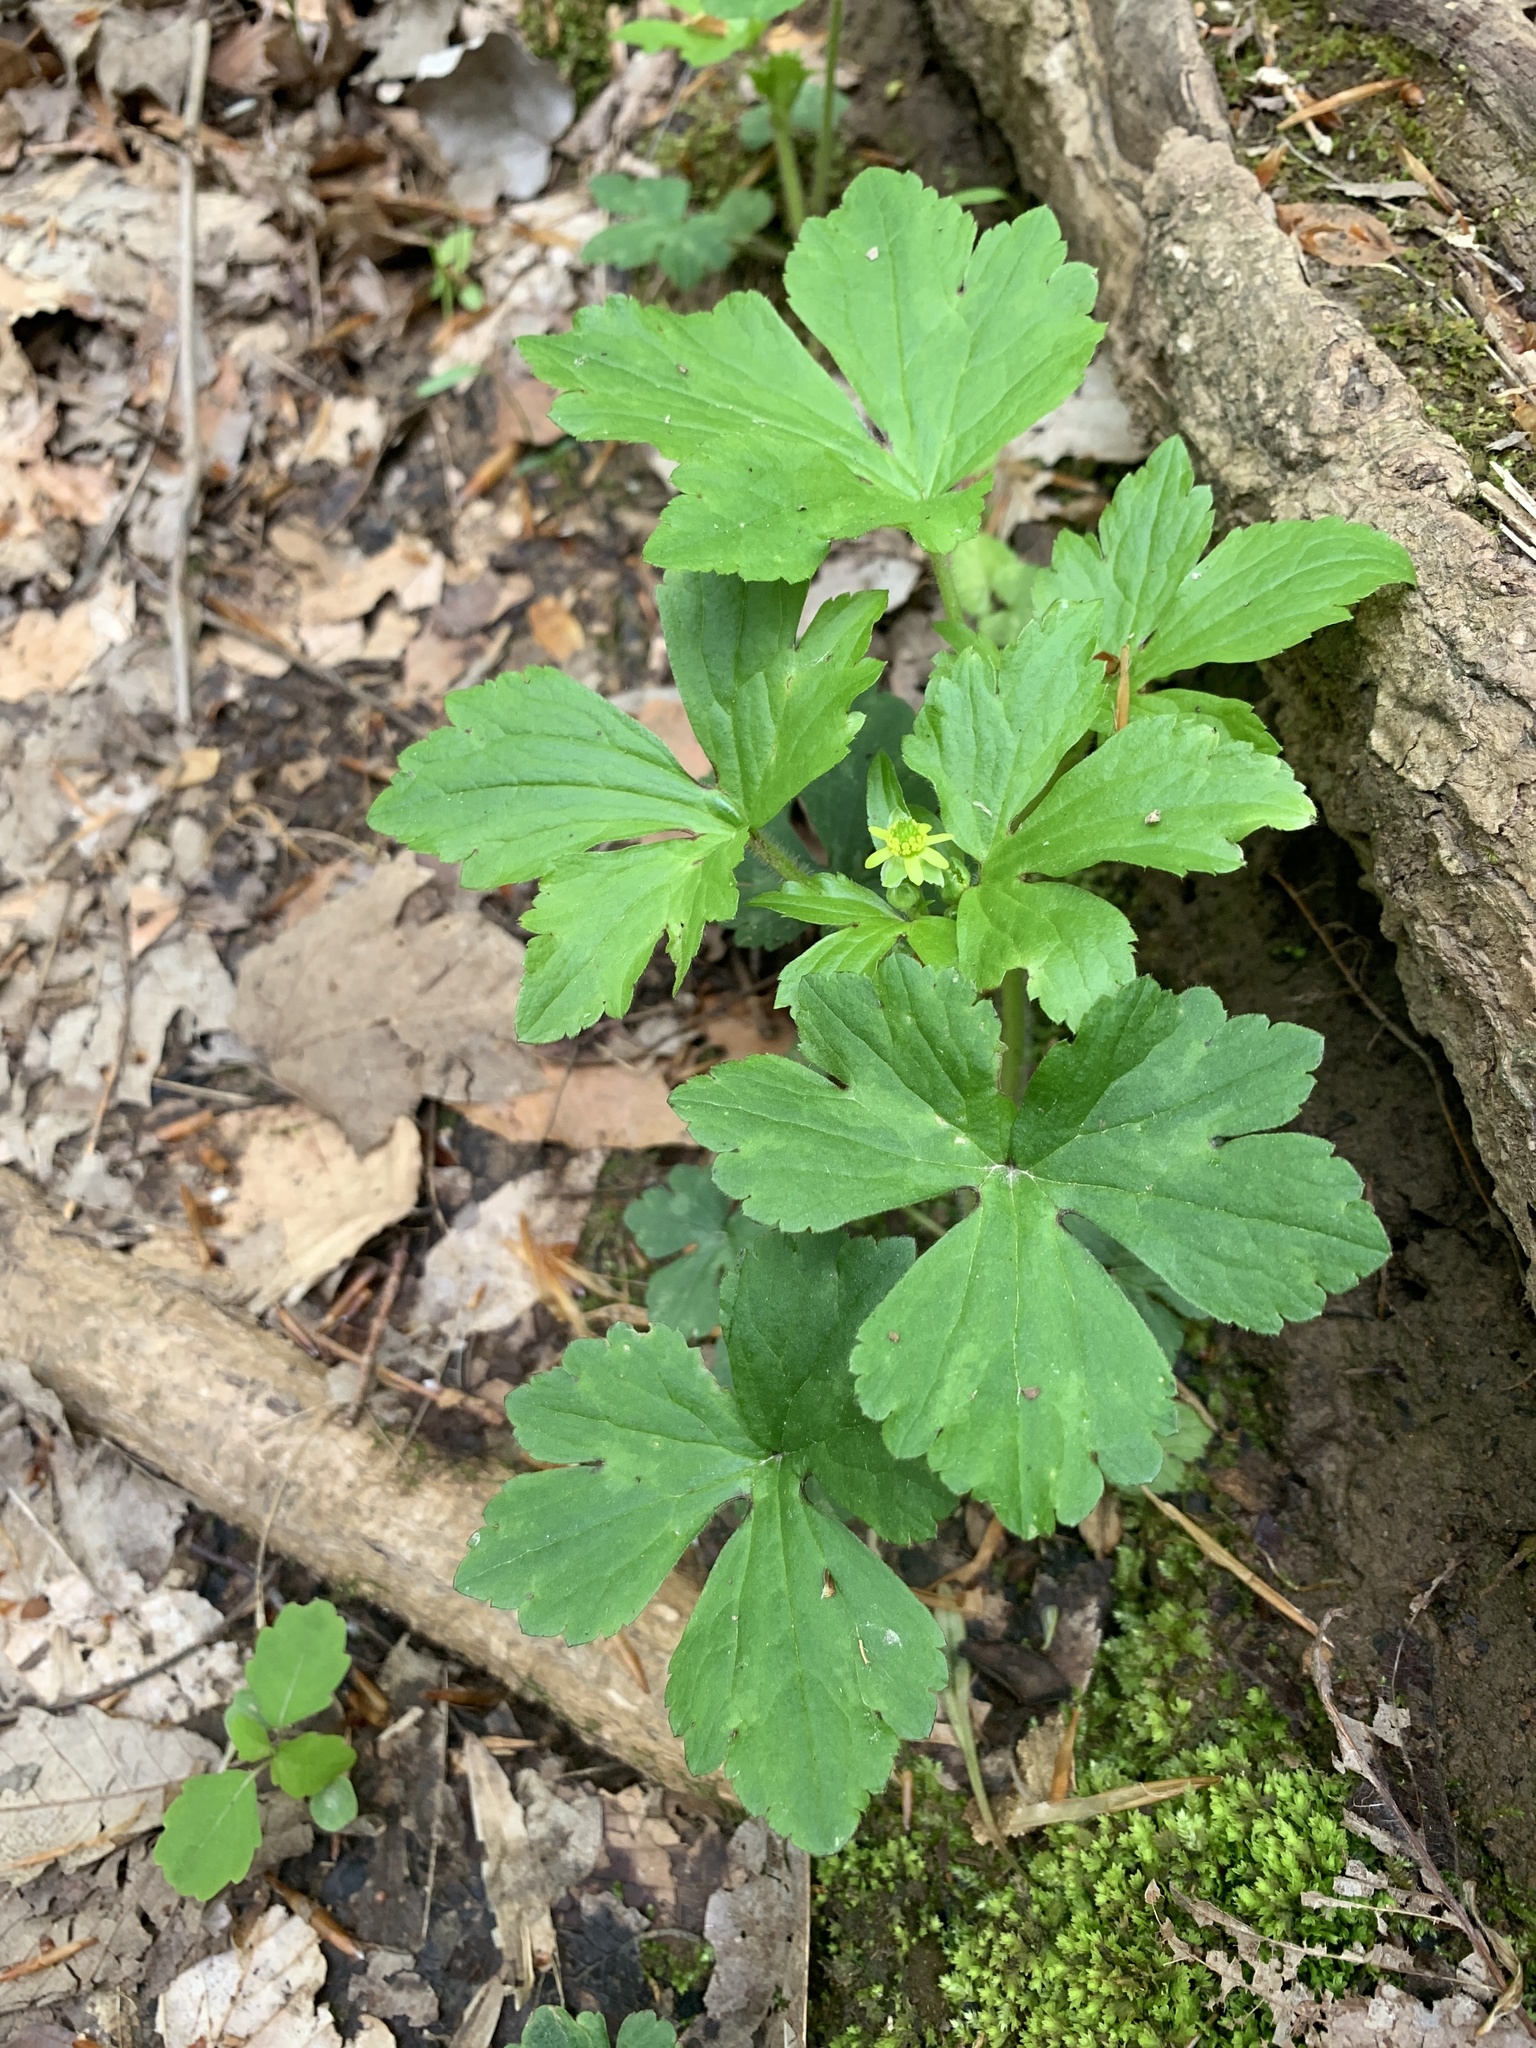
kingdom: Plantae
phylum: Tracheophyta
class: Magnoliopsida
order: Ranunculales
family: Ranunculaceae
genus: Ranunculus
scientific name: Ranunculus recurvatus
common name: Blisterwort
